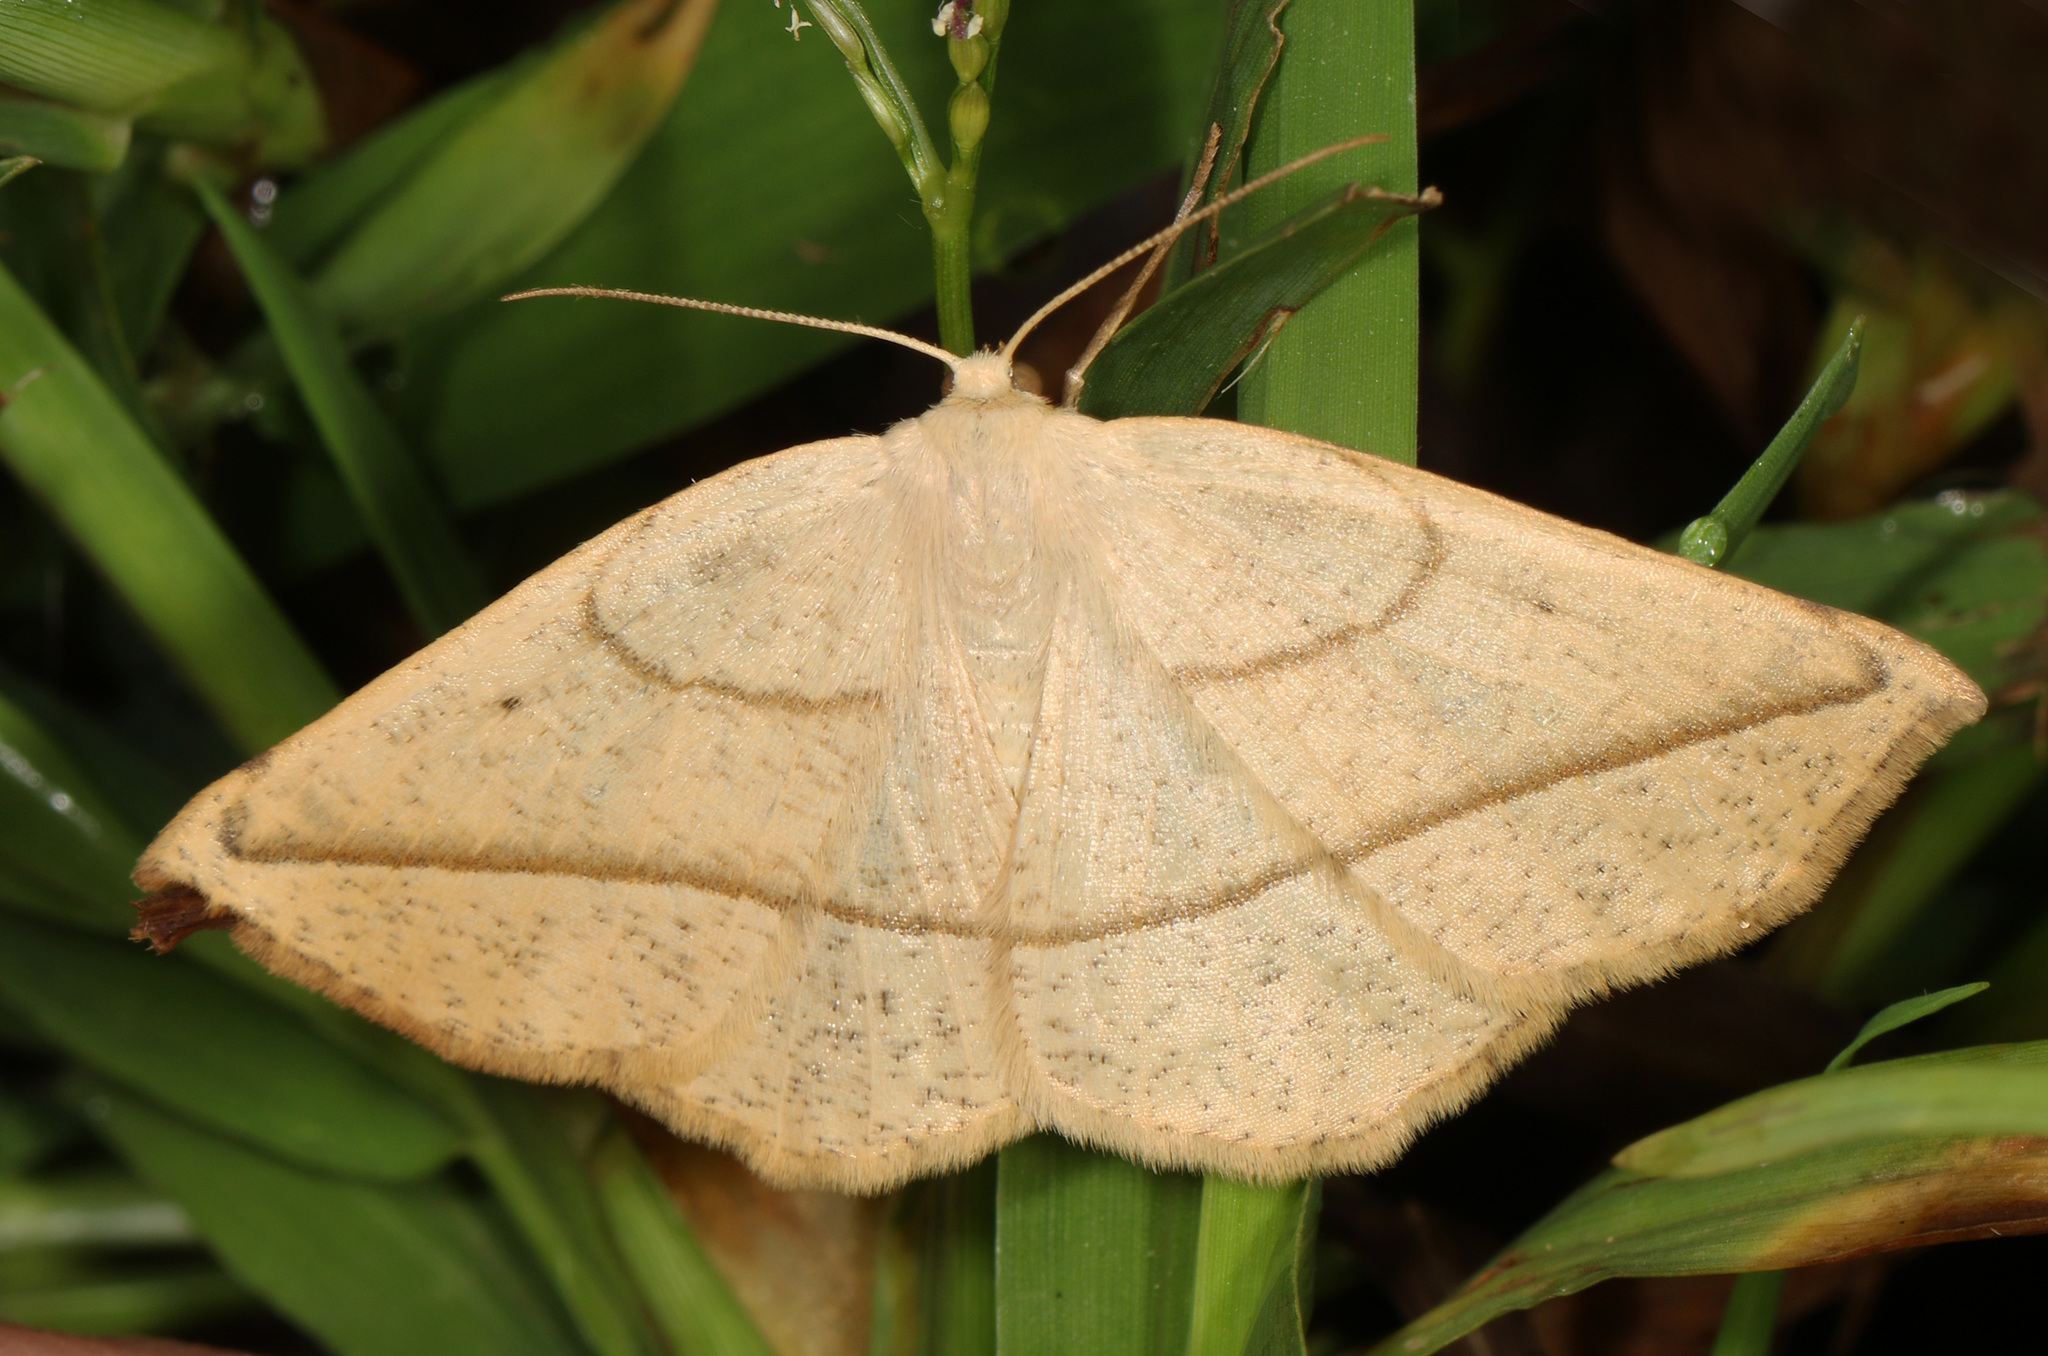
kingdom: Animalia
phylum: Arthropoda
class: Insecta
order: Lepidoptera
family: Geometridae
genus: Eusarca
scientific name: Eusarca confusaria
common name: Confused eusarca
